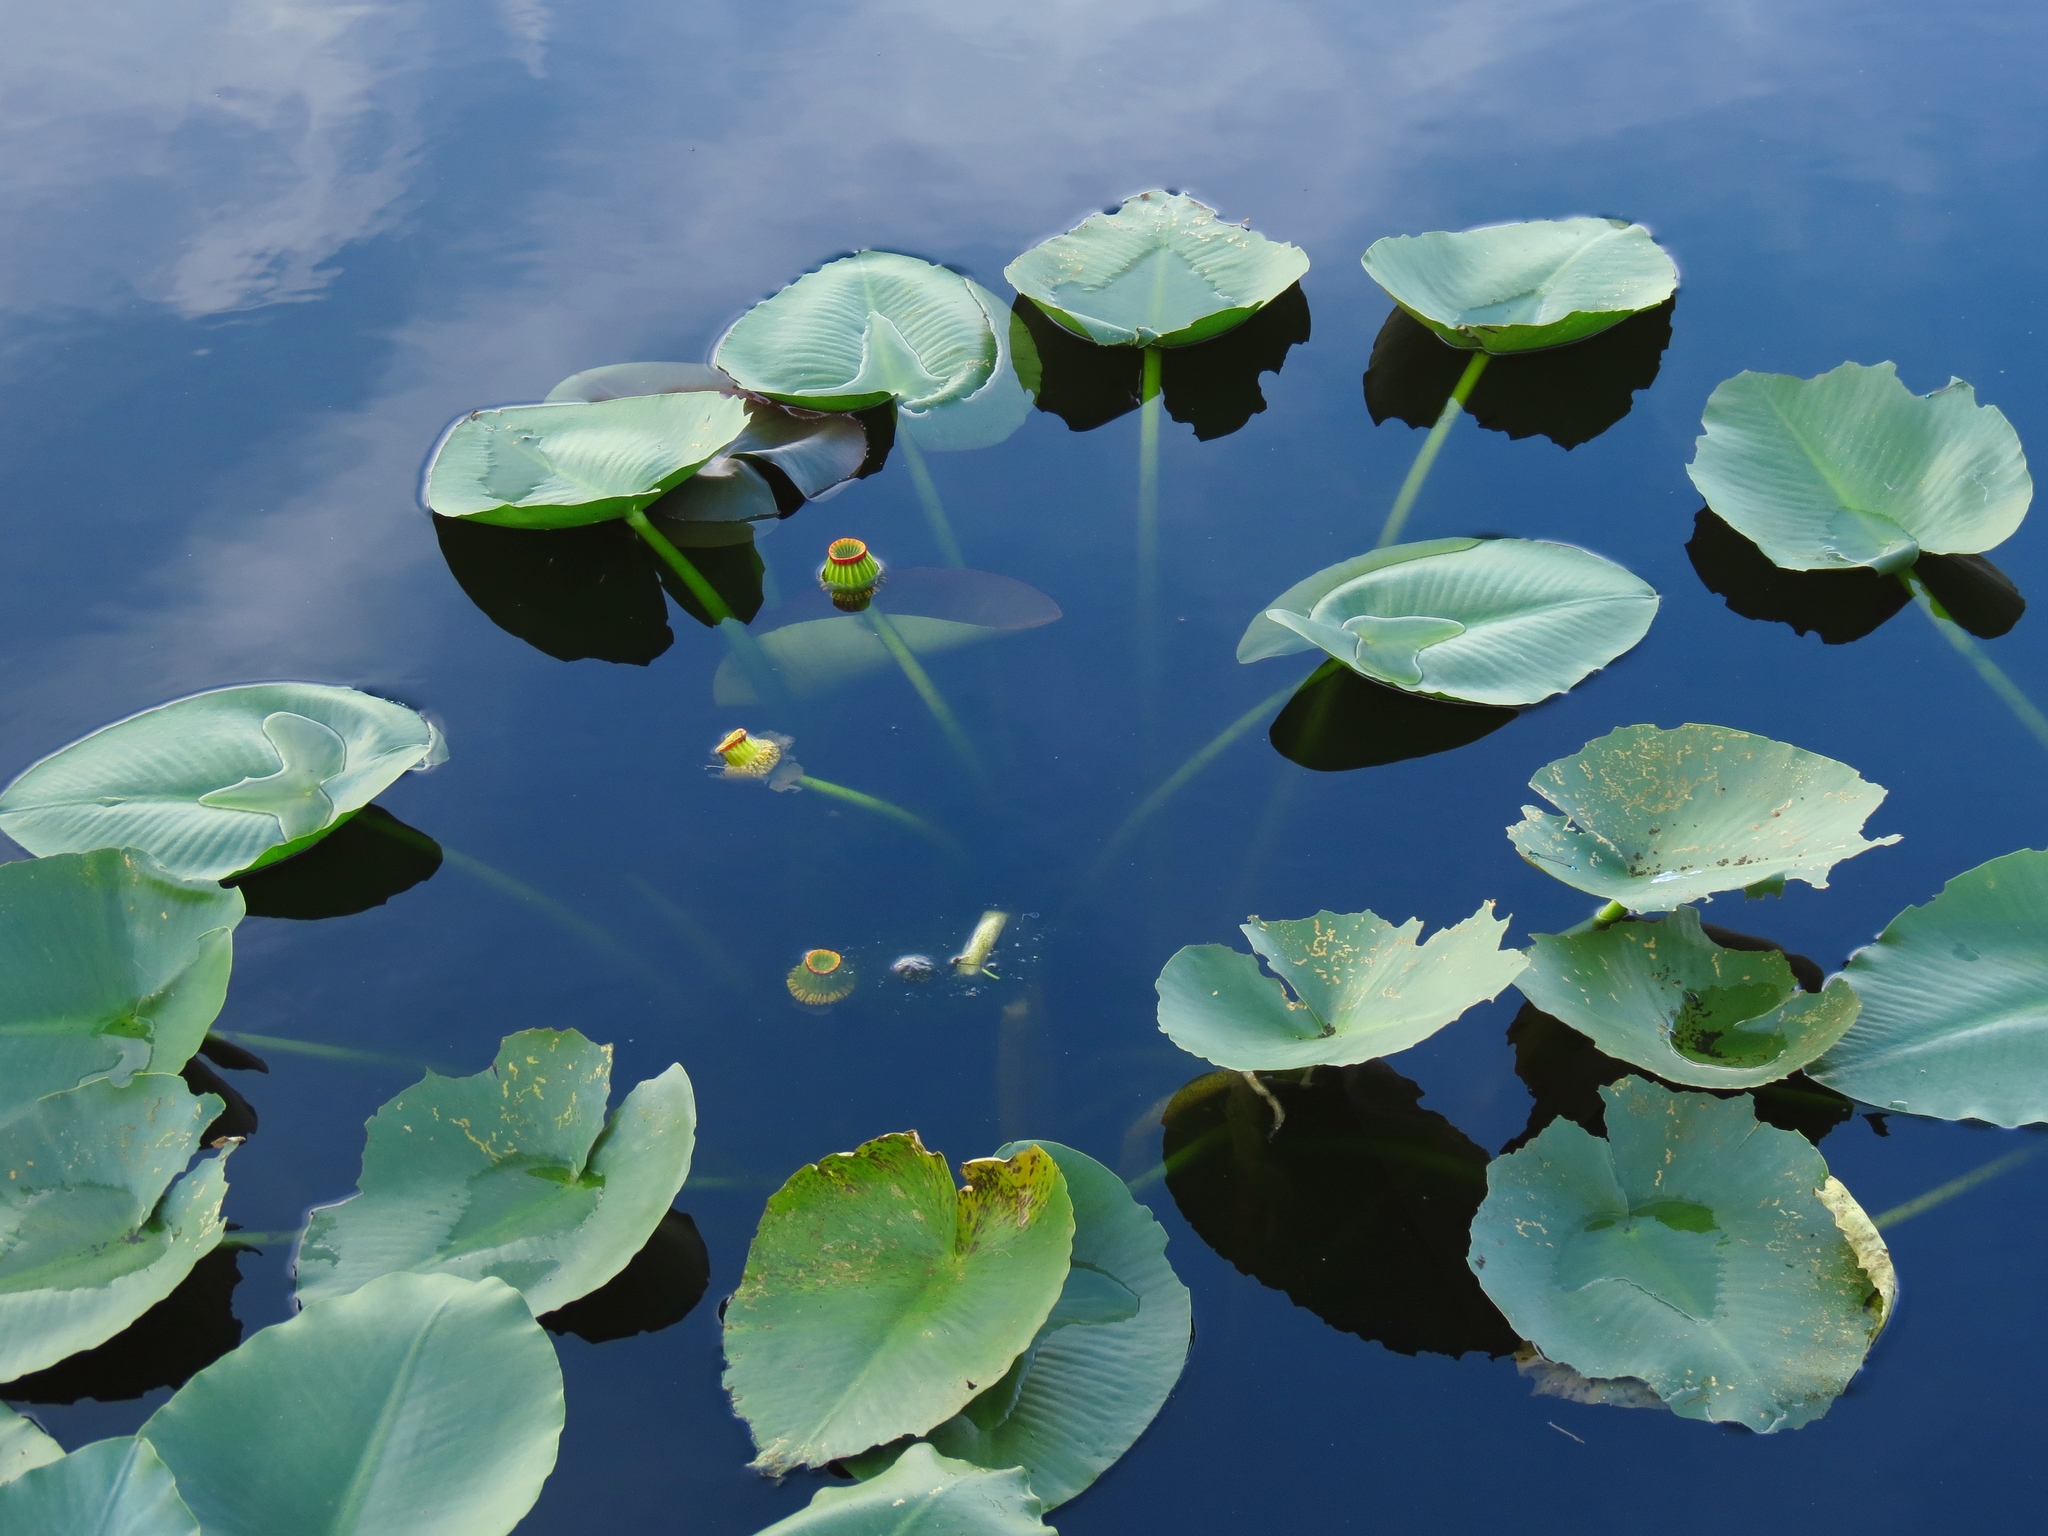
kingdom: Plantae
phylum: Tracheophyta
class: Magnoliopsida
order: Nymphaeales
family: Nymphaeaceae
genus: Nuphar
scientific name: Nuphar advena
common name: Spatter-dock
